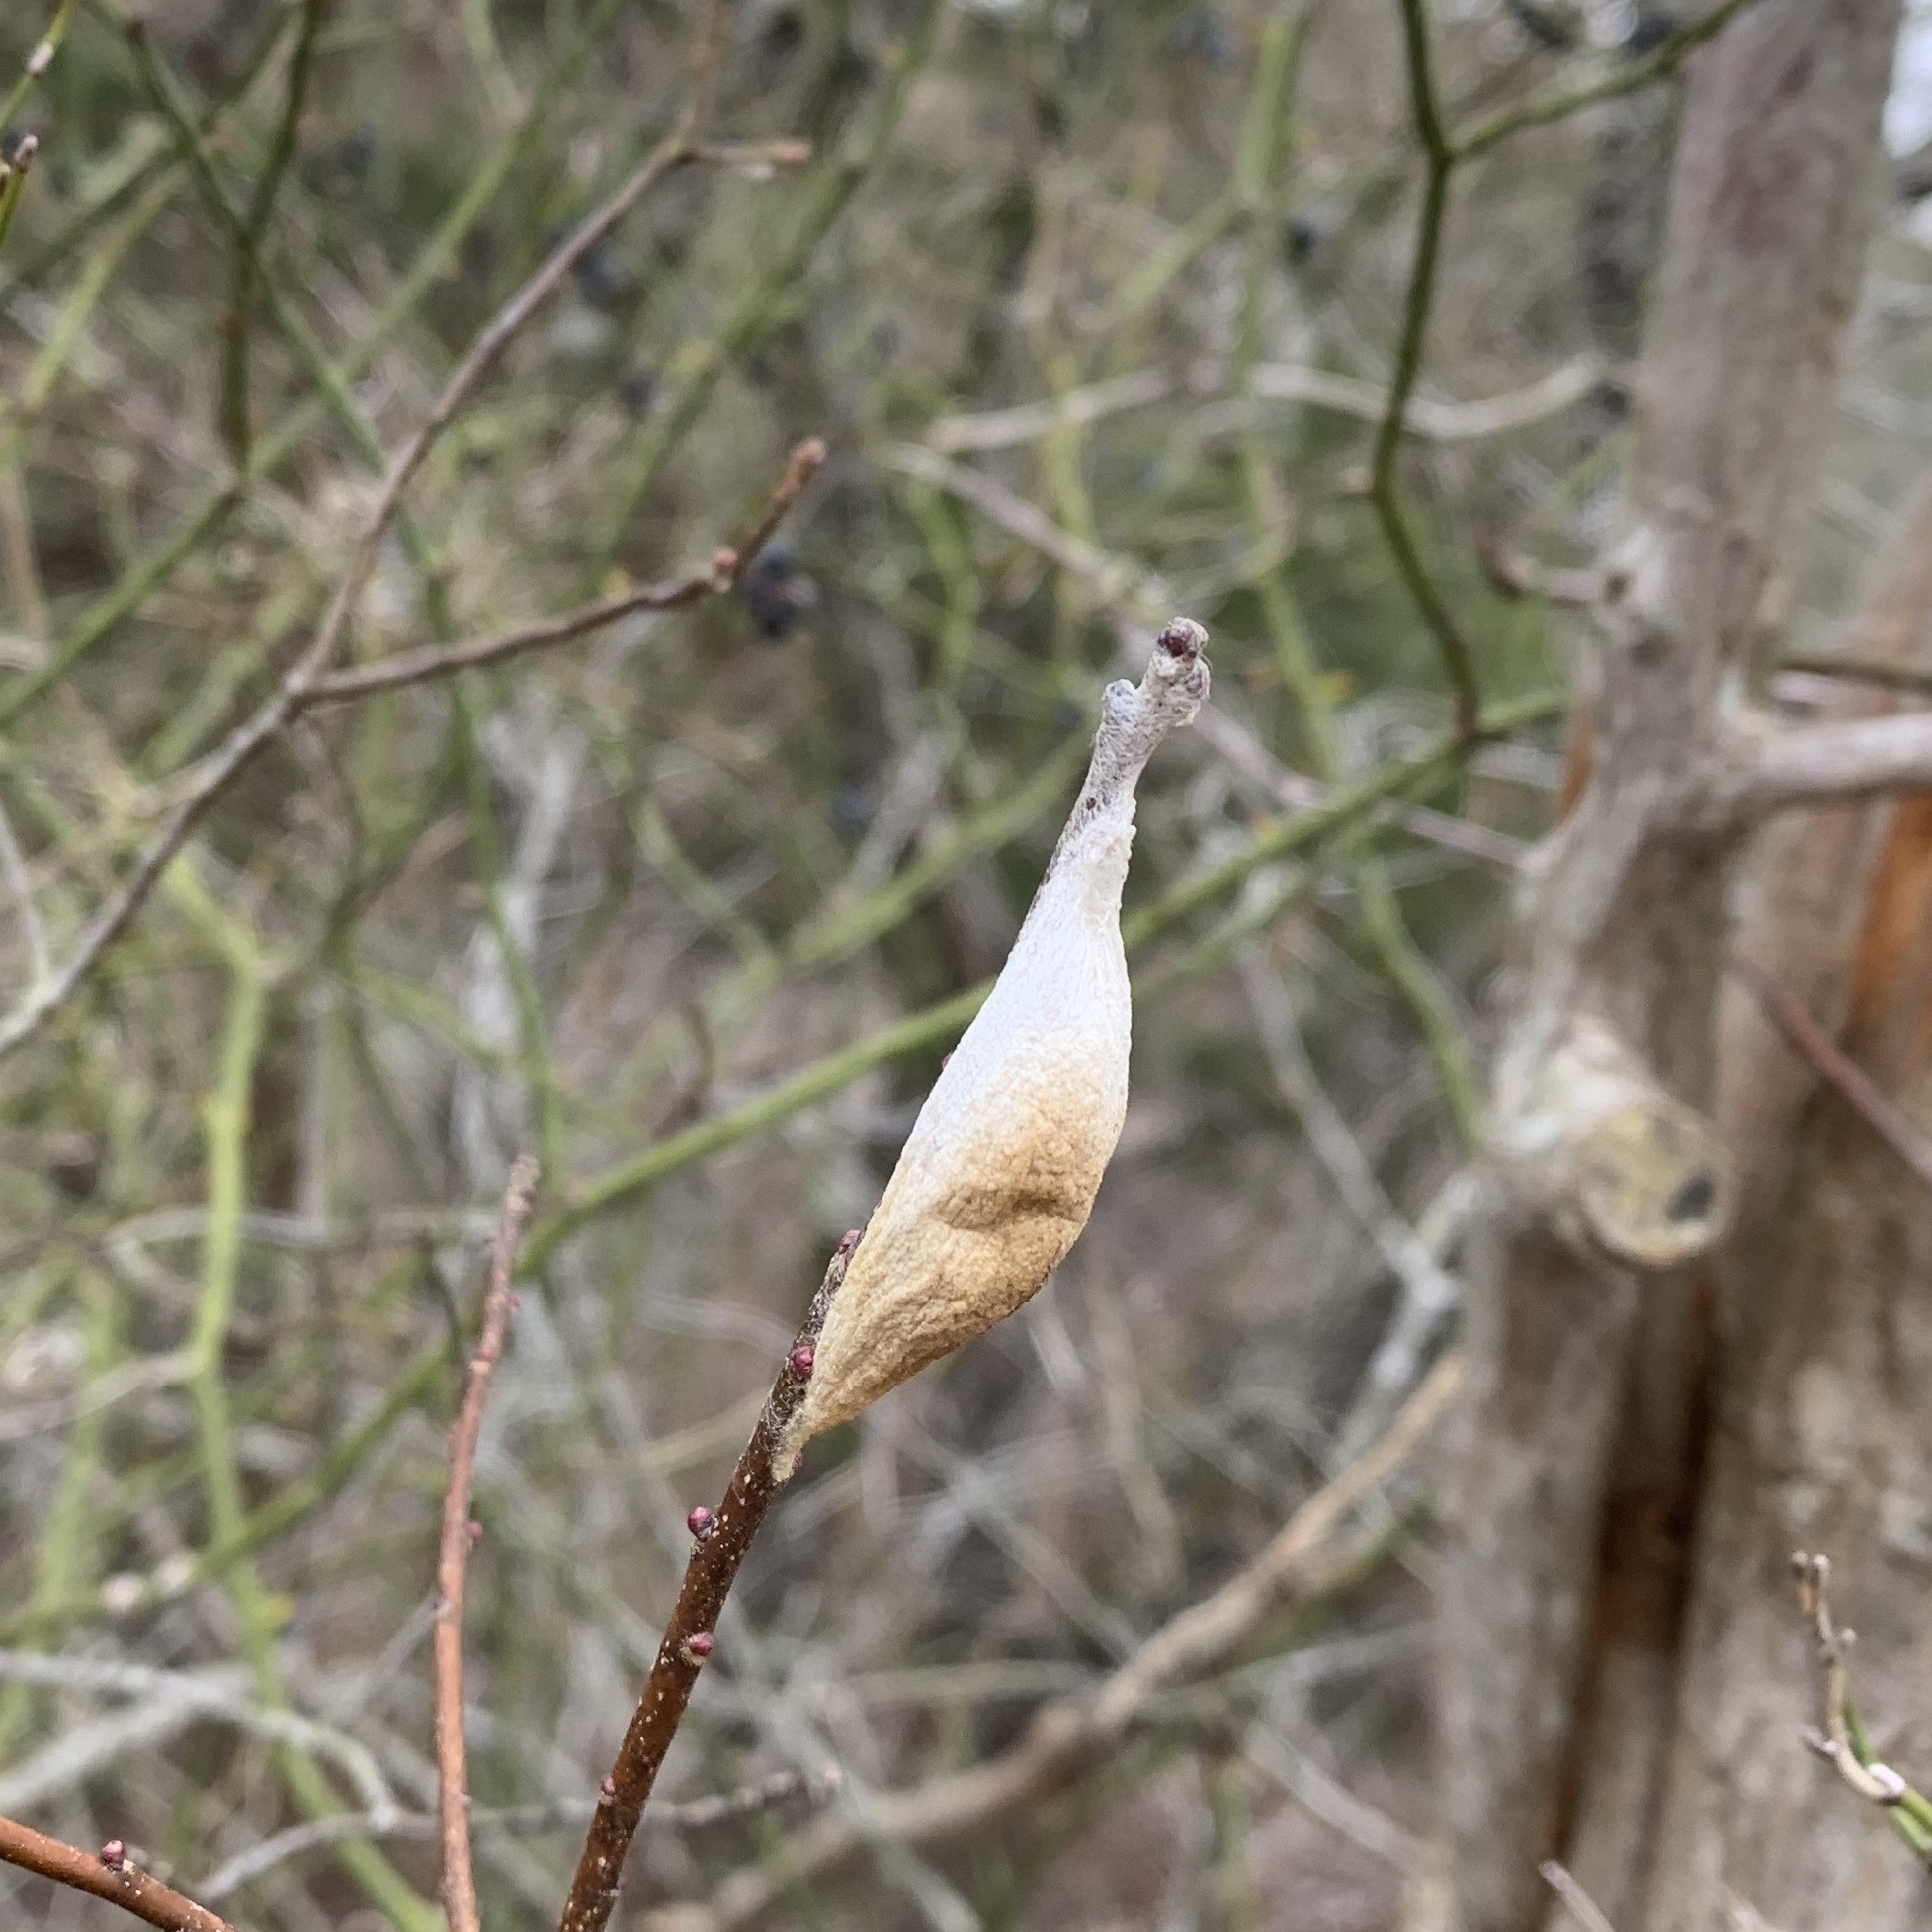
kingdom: Animalia
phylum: Arthropoda
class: Insecta
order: Lepidoptera
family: Saturniidae
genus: Hyalophora
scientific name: Hyalophora cecropia
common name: Cecropia silkmoth
